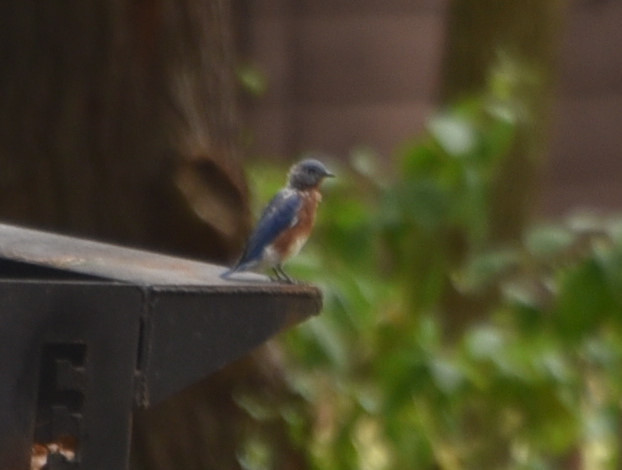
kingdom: Animalia
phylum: Chordata
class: Aves
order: Passeriformes
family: Turdidae
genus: Sialia
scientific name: Sialia sialis
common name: Eastern bluebird
